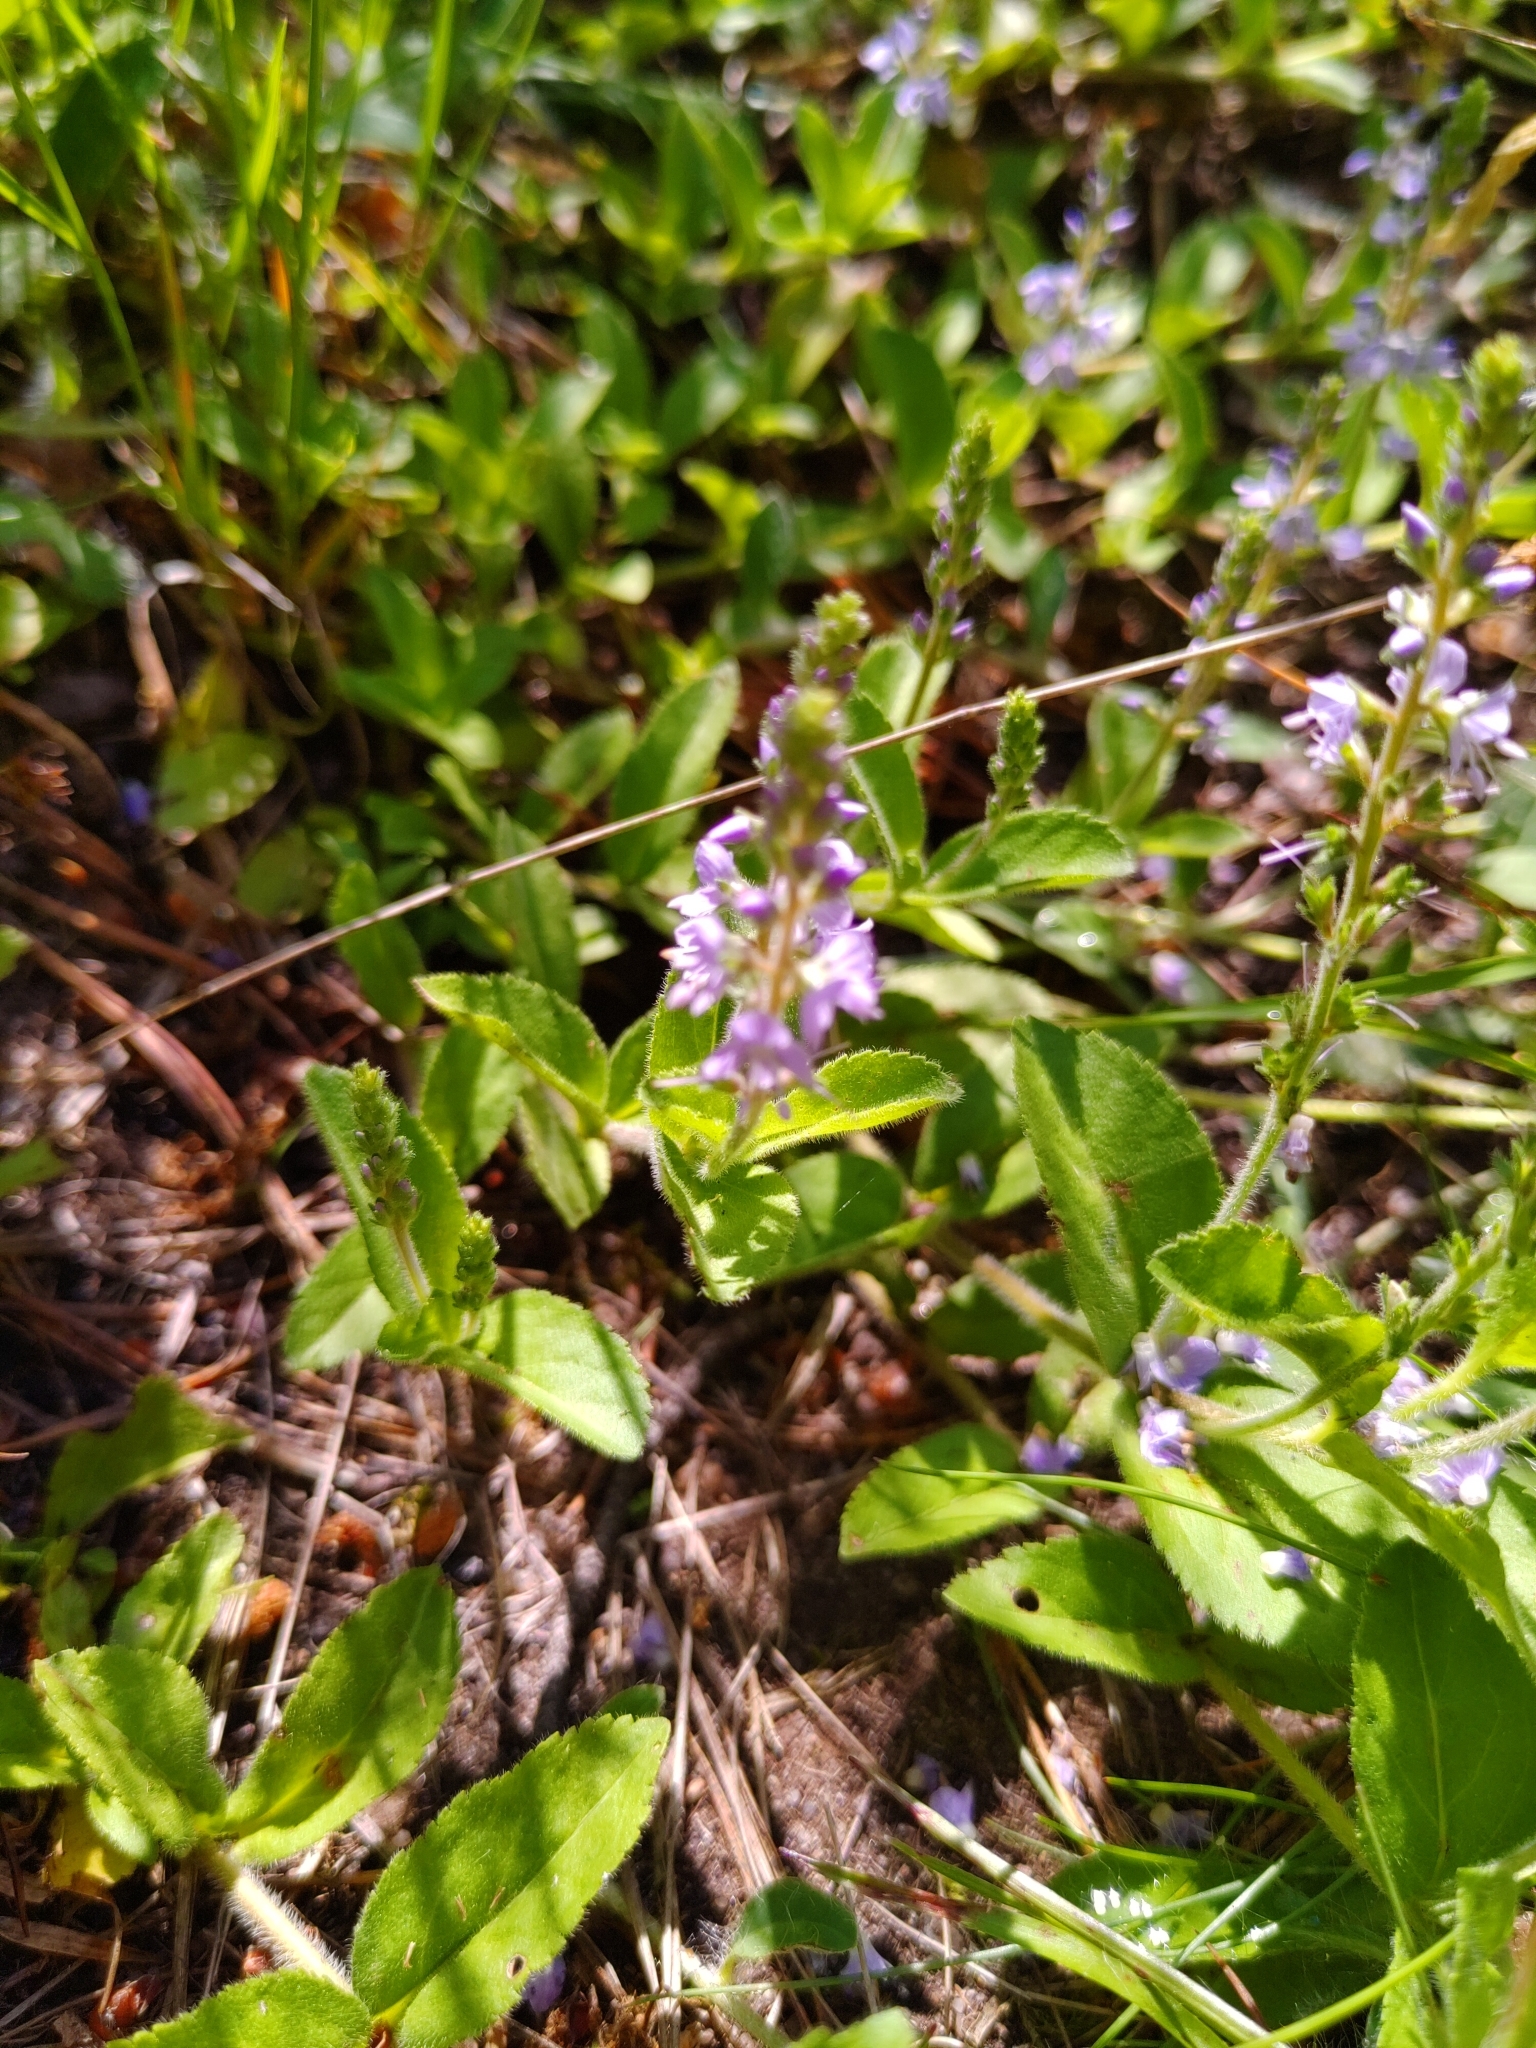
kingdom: Plantae
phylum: Tracheophyta
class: Magnoliopsida
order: Lamiales
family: Plantaginaceae
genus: Veronica
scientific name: Veronica officinalis
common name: Common speedwell
